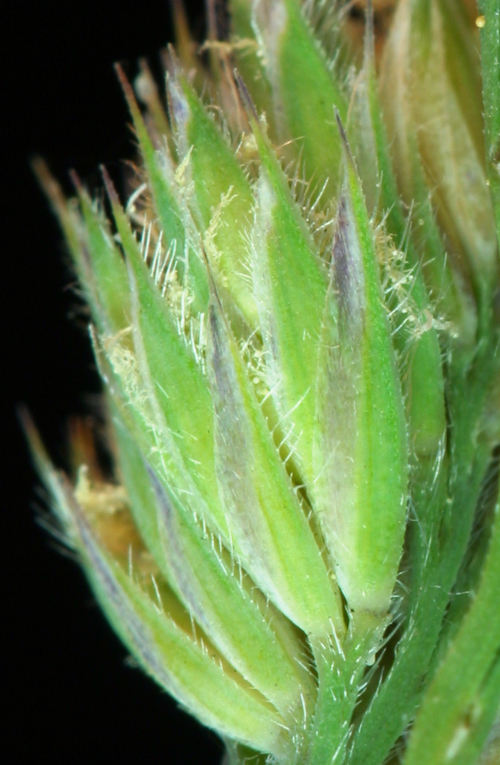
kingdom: Plantae
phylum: Tracheophyta
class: Liliopsida
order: Poales
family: Poaceae
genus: Dactylis
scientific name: Dactylis glomerata
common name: Orchardgrass
